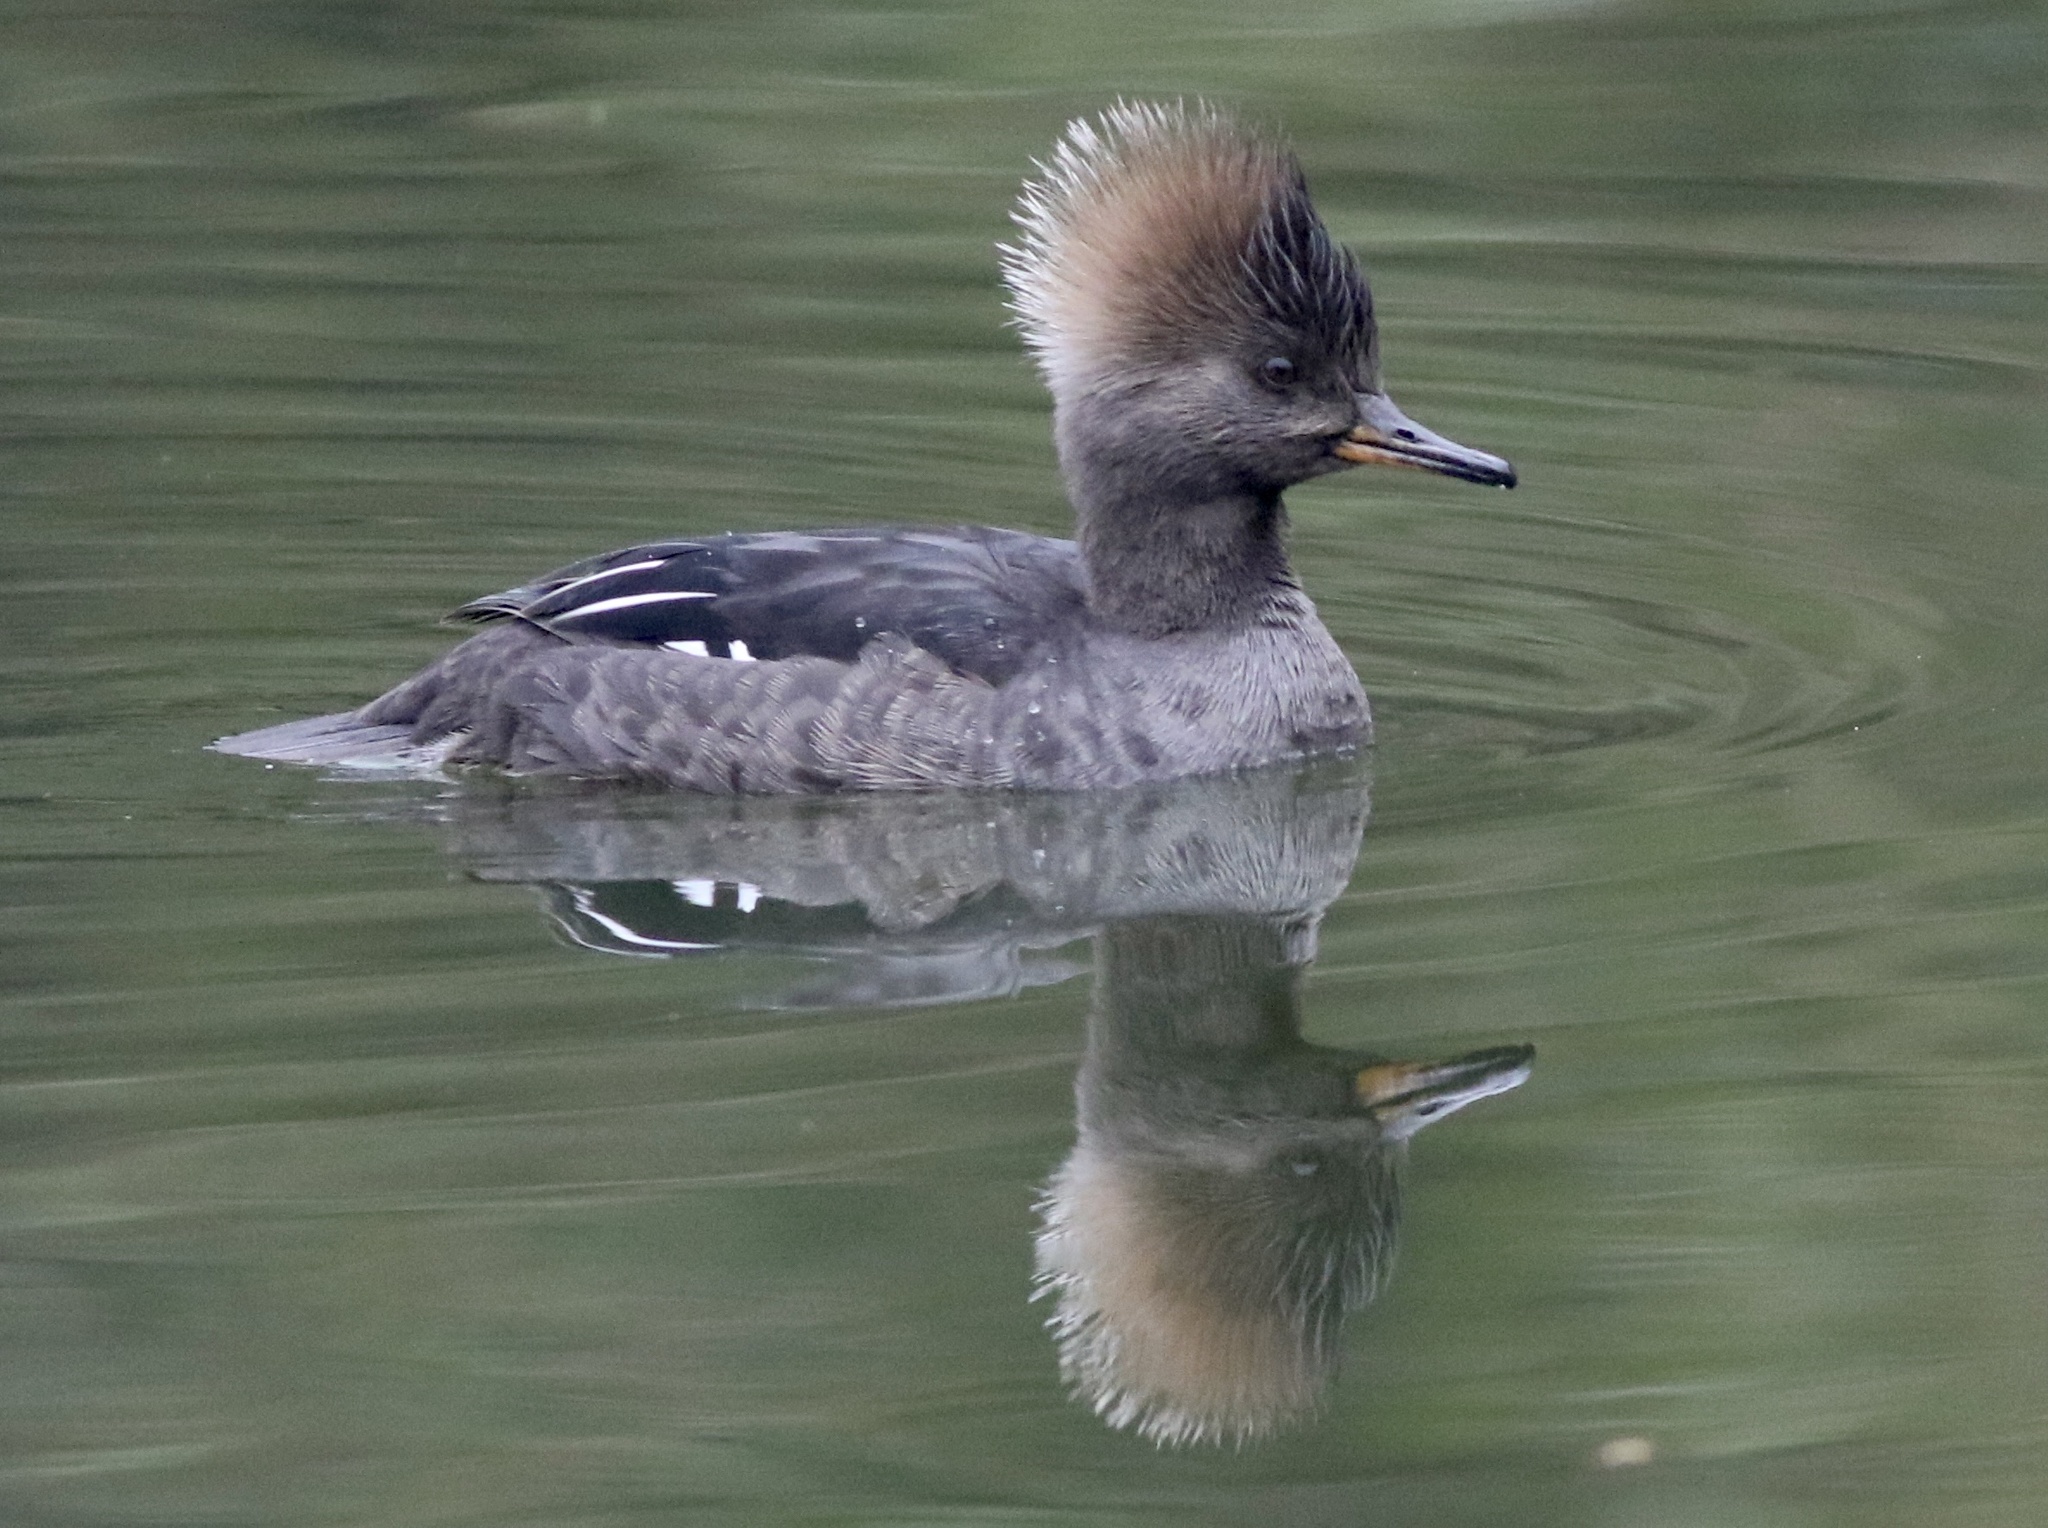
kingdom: Animalia
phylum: Chordata
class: Aves
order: Anseriformes
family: Anatidae
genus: Lophodytes
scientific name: Lophodytes cucullatus
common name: Hooded merganser
